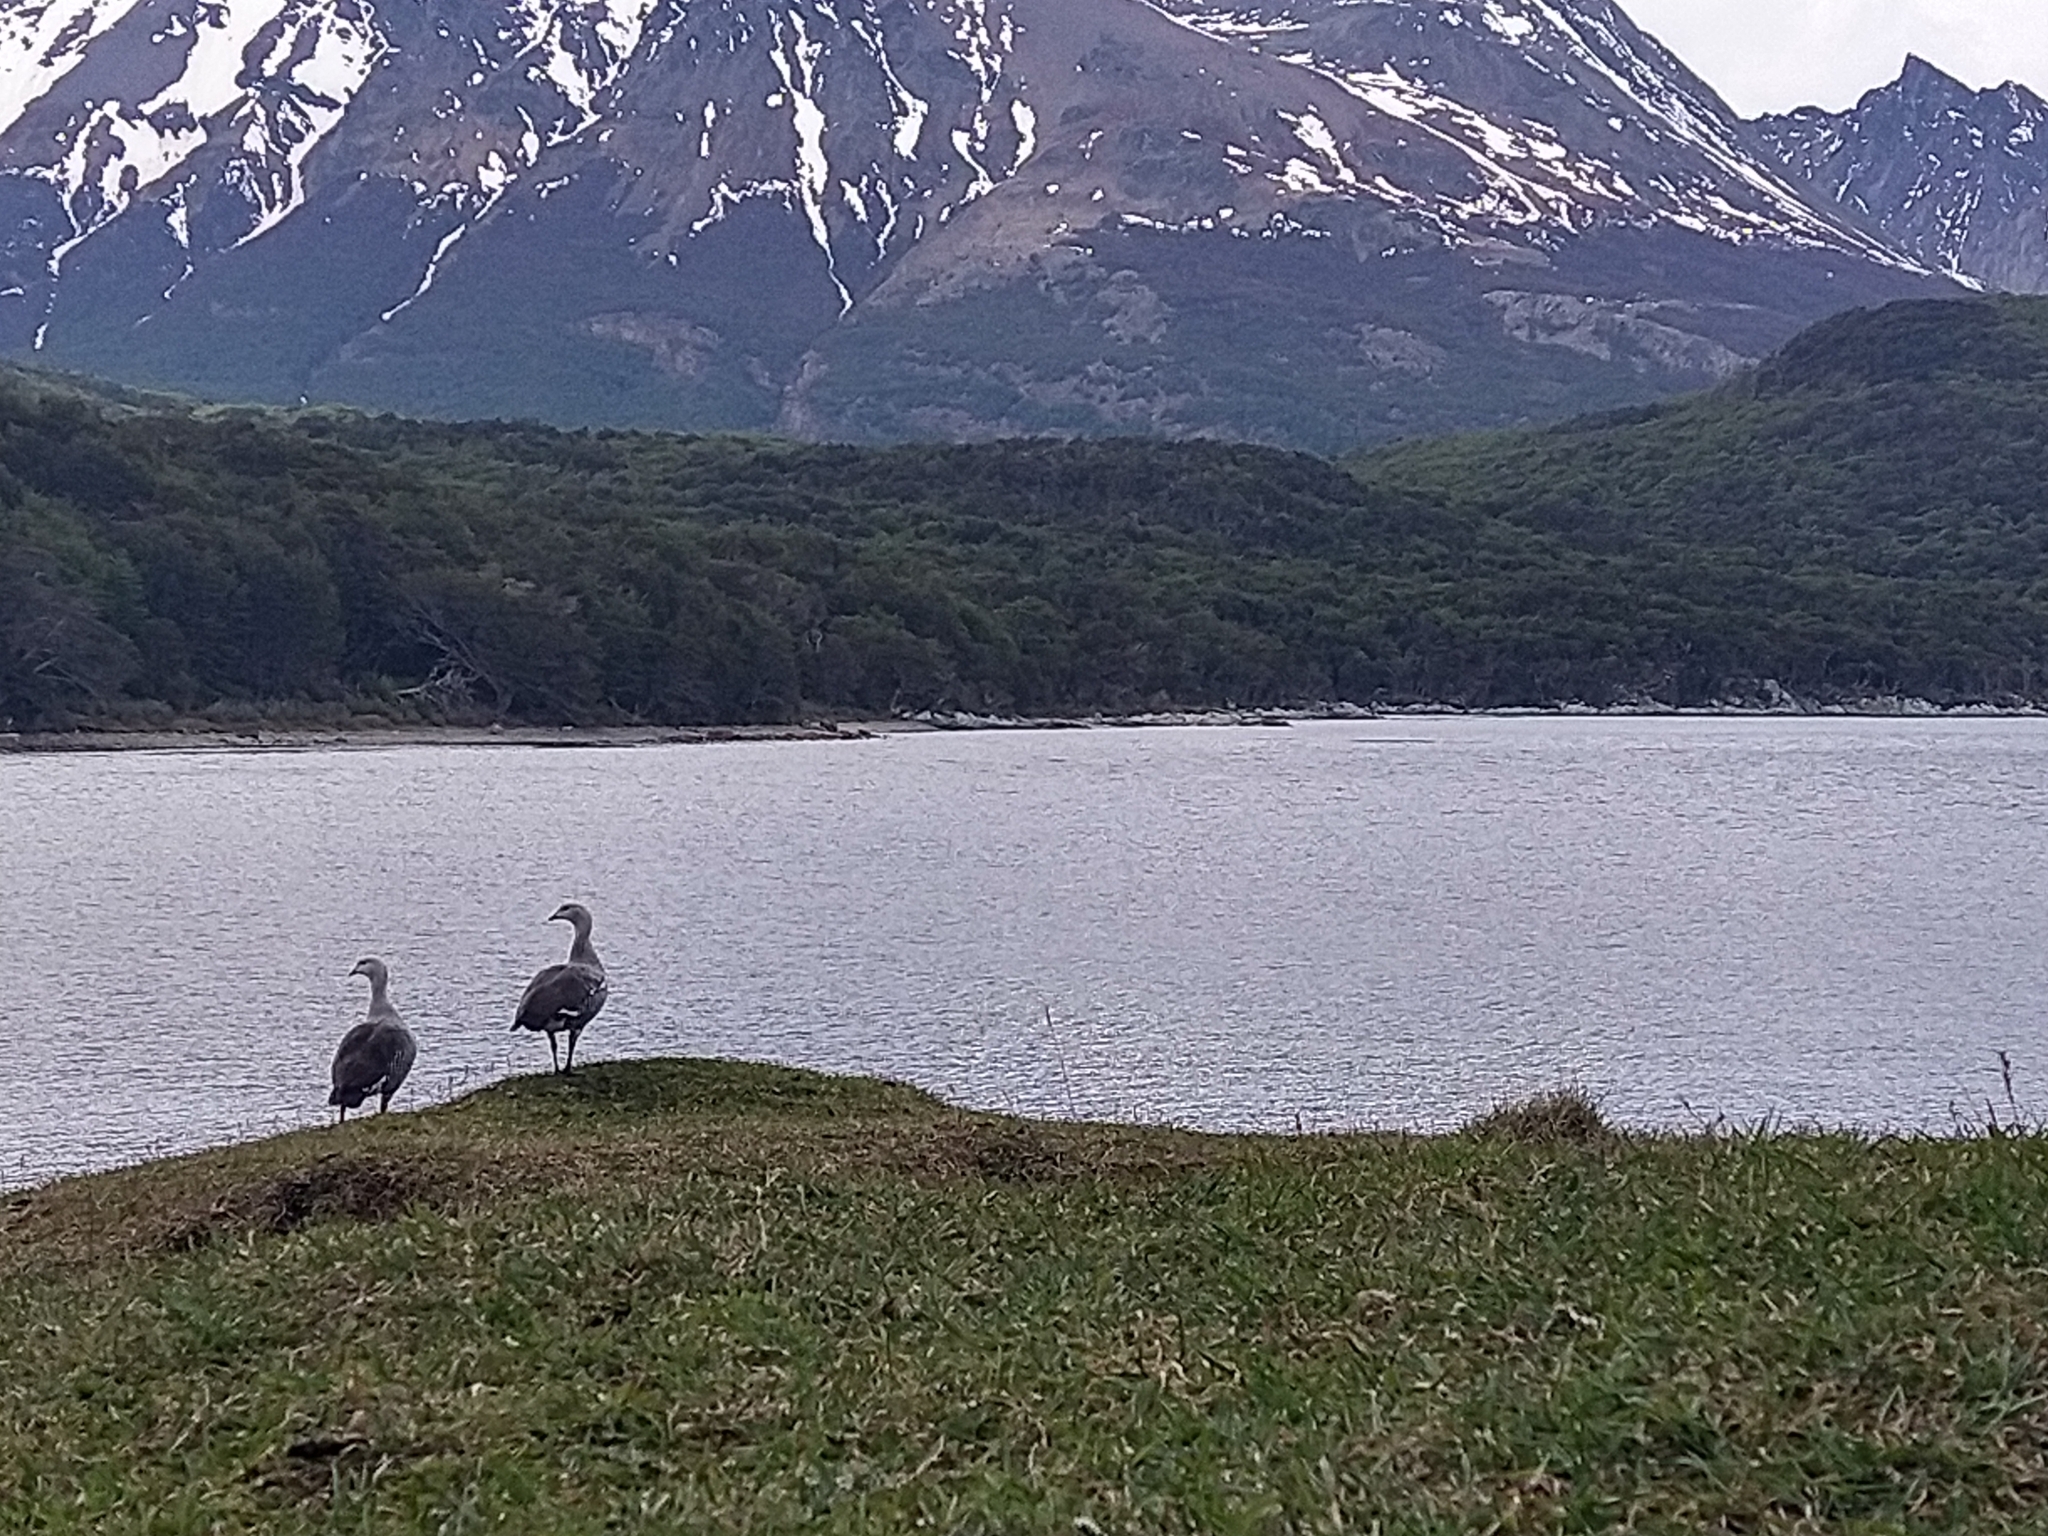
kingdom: Animalia
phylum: Chordata
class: Aves
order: Anseriformes
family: Anatidae
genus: Chloephaga
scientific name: Chloephaga picta
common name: Upland goose
